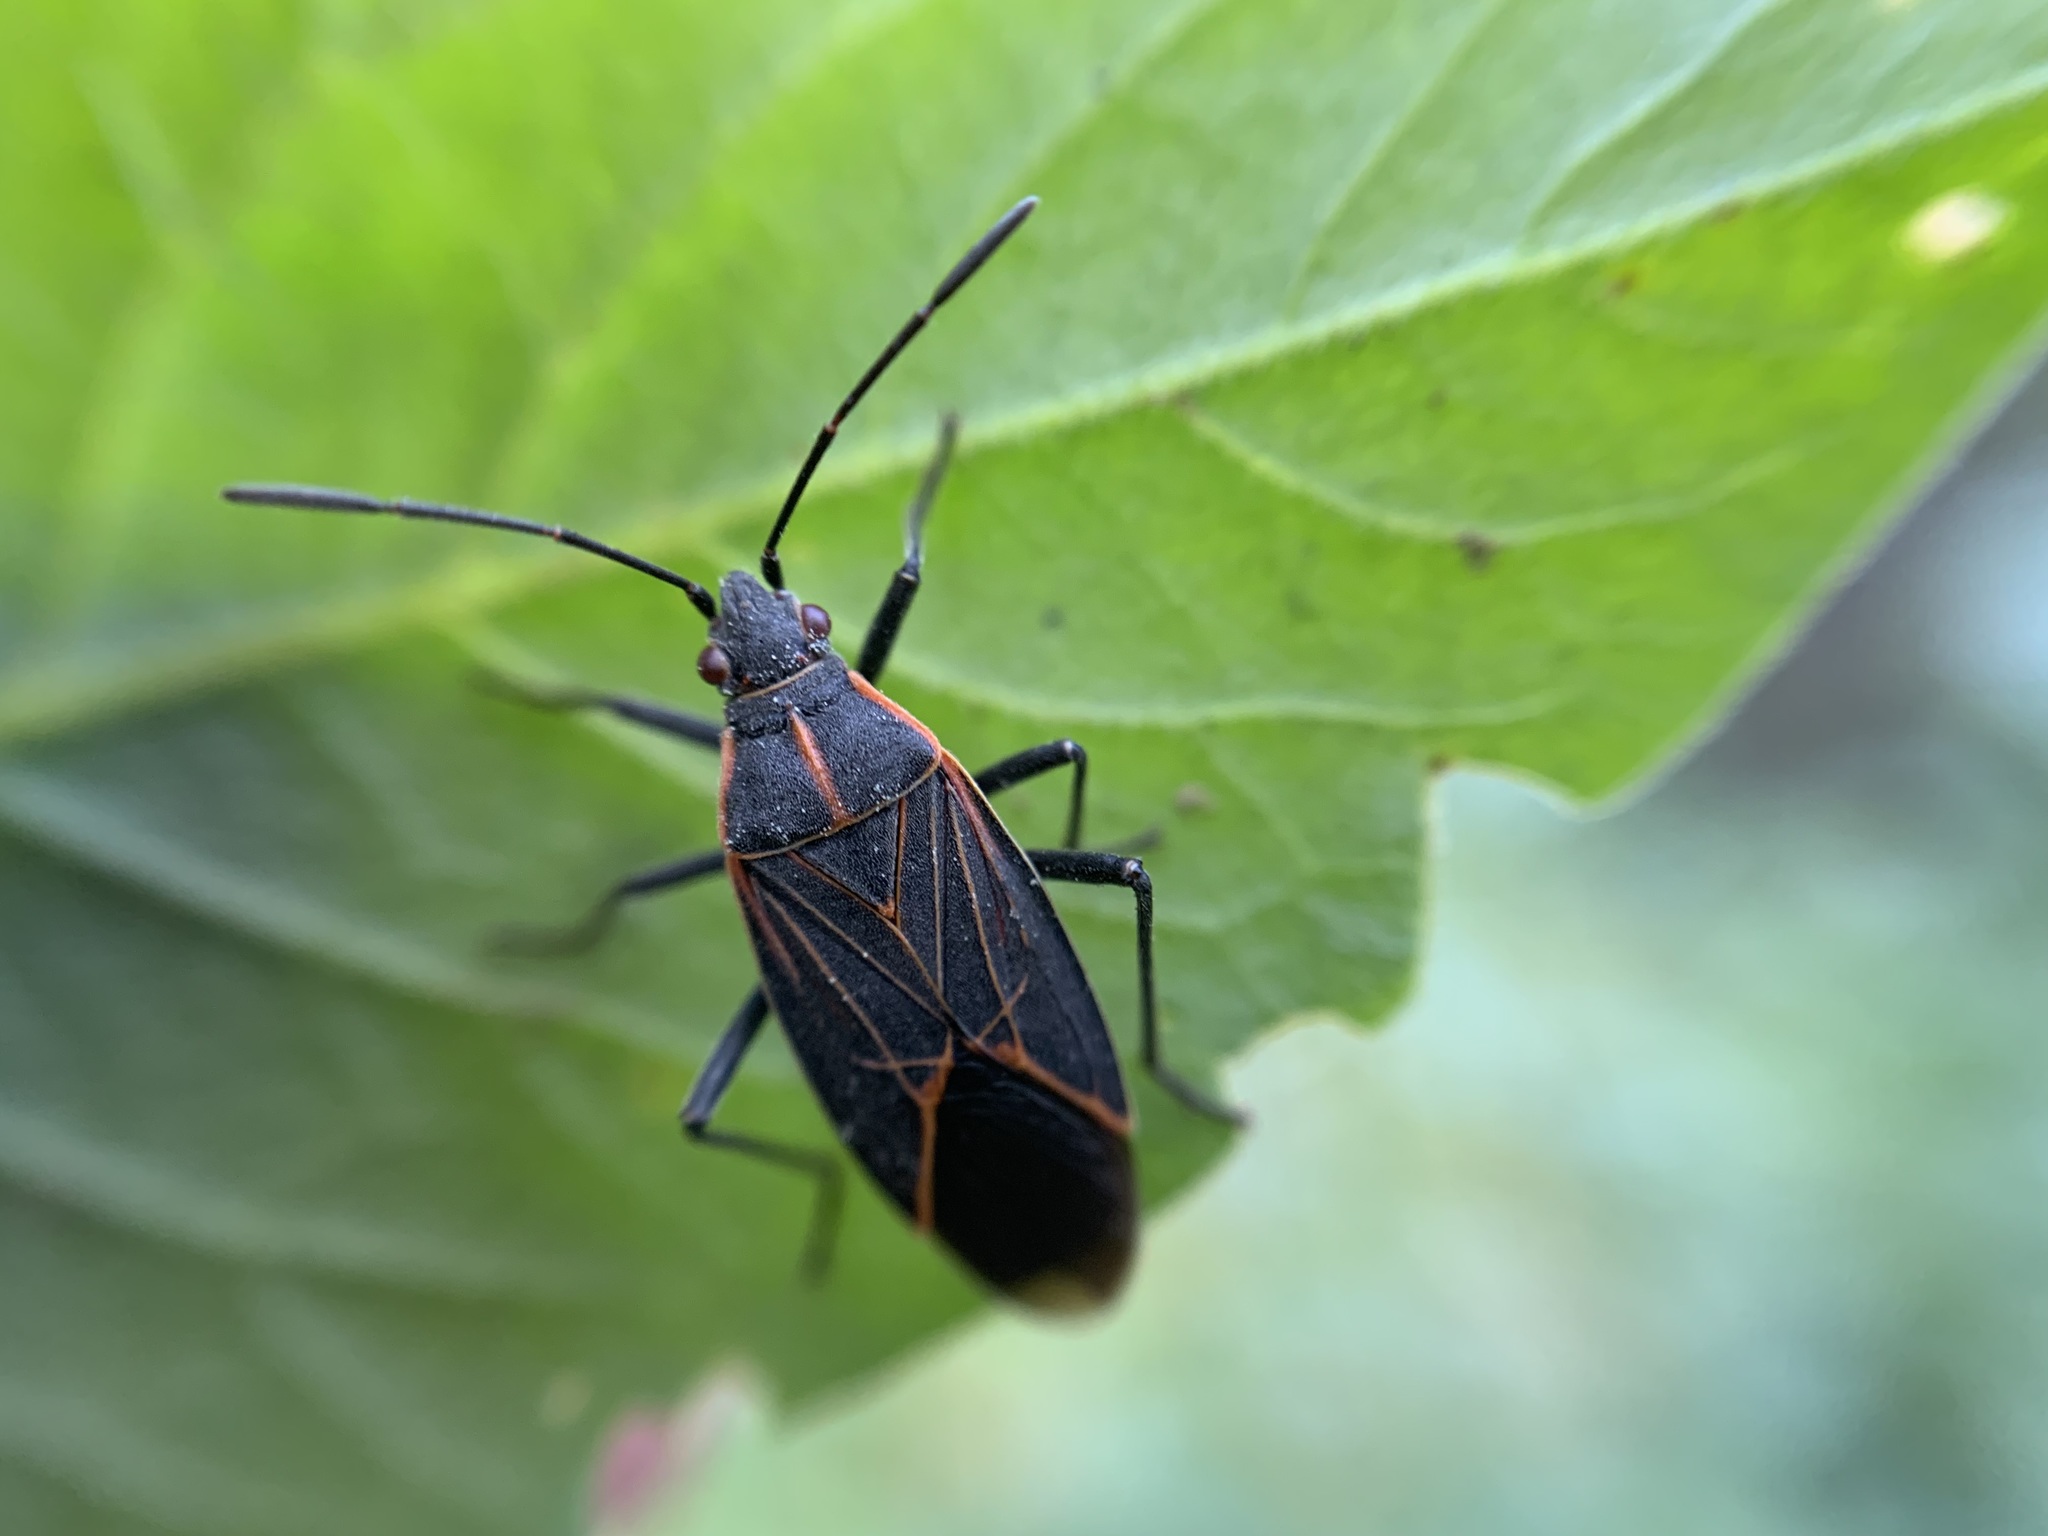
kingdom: Animalia
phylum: Arthropoda
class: Insecta
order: Hemiptera
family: Rhopalidae
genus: Boisea
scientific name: Boisea rubrolineata
